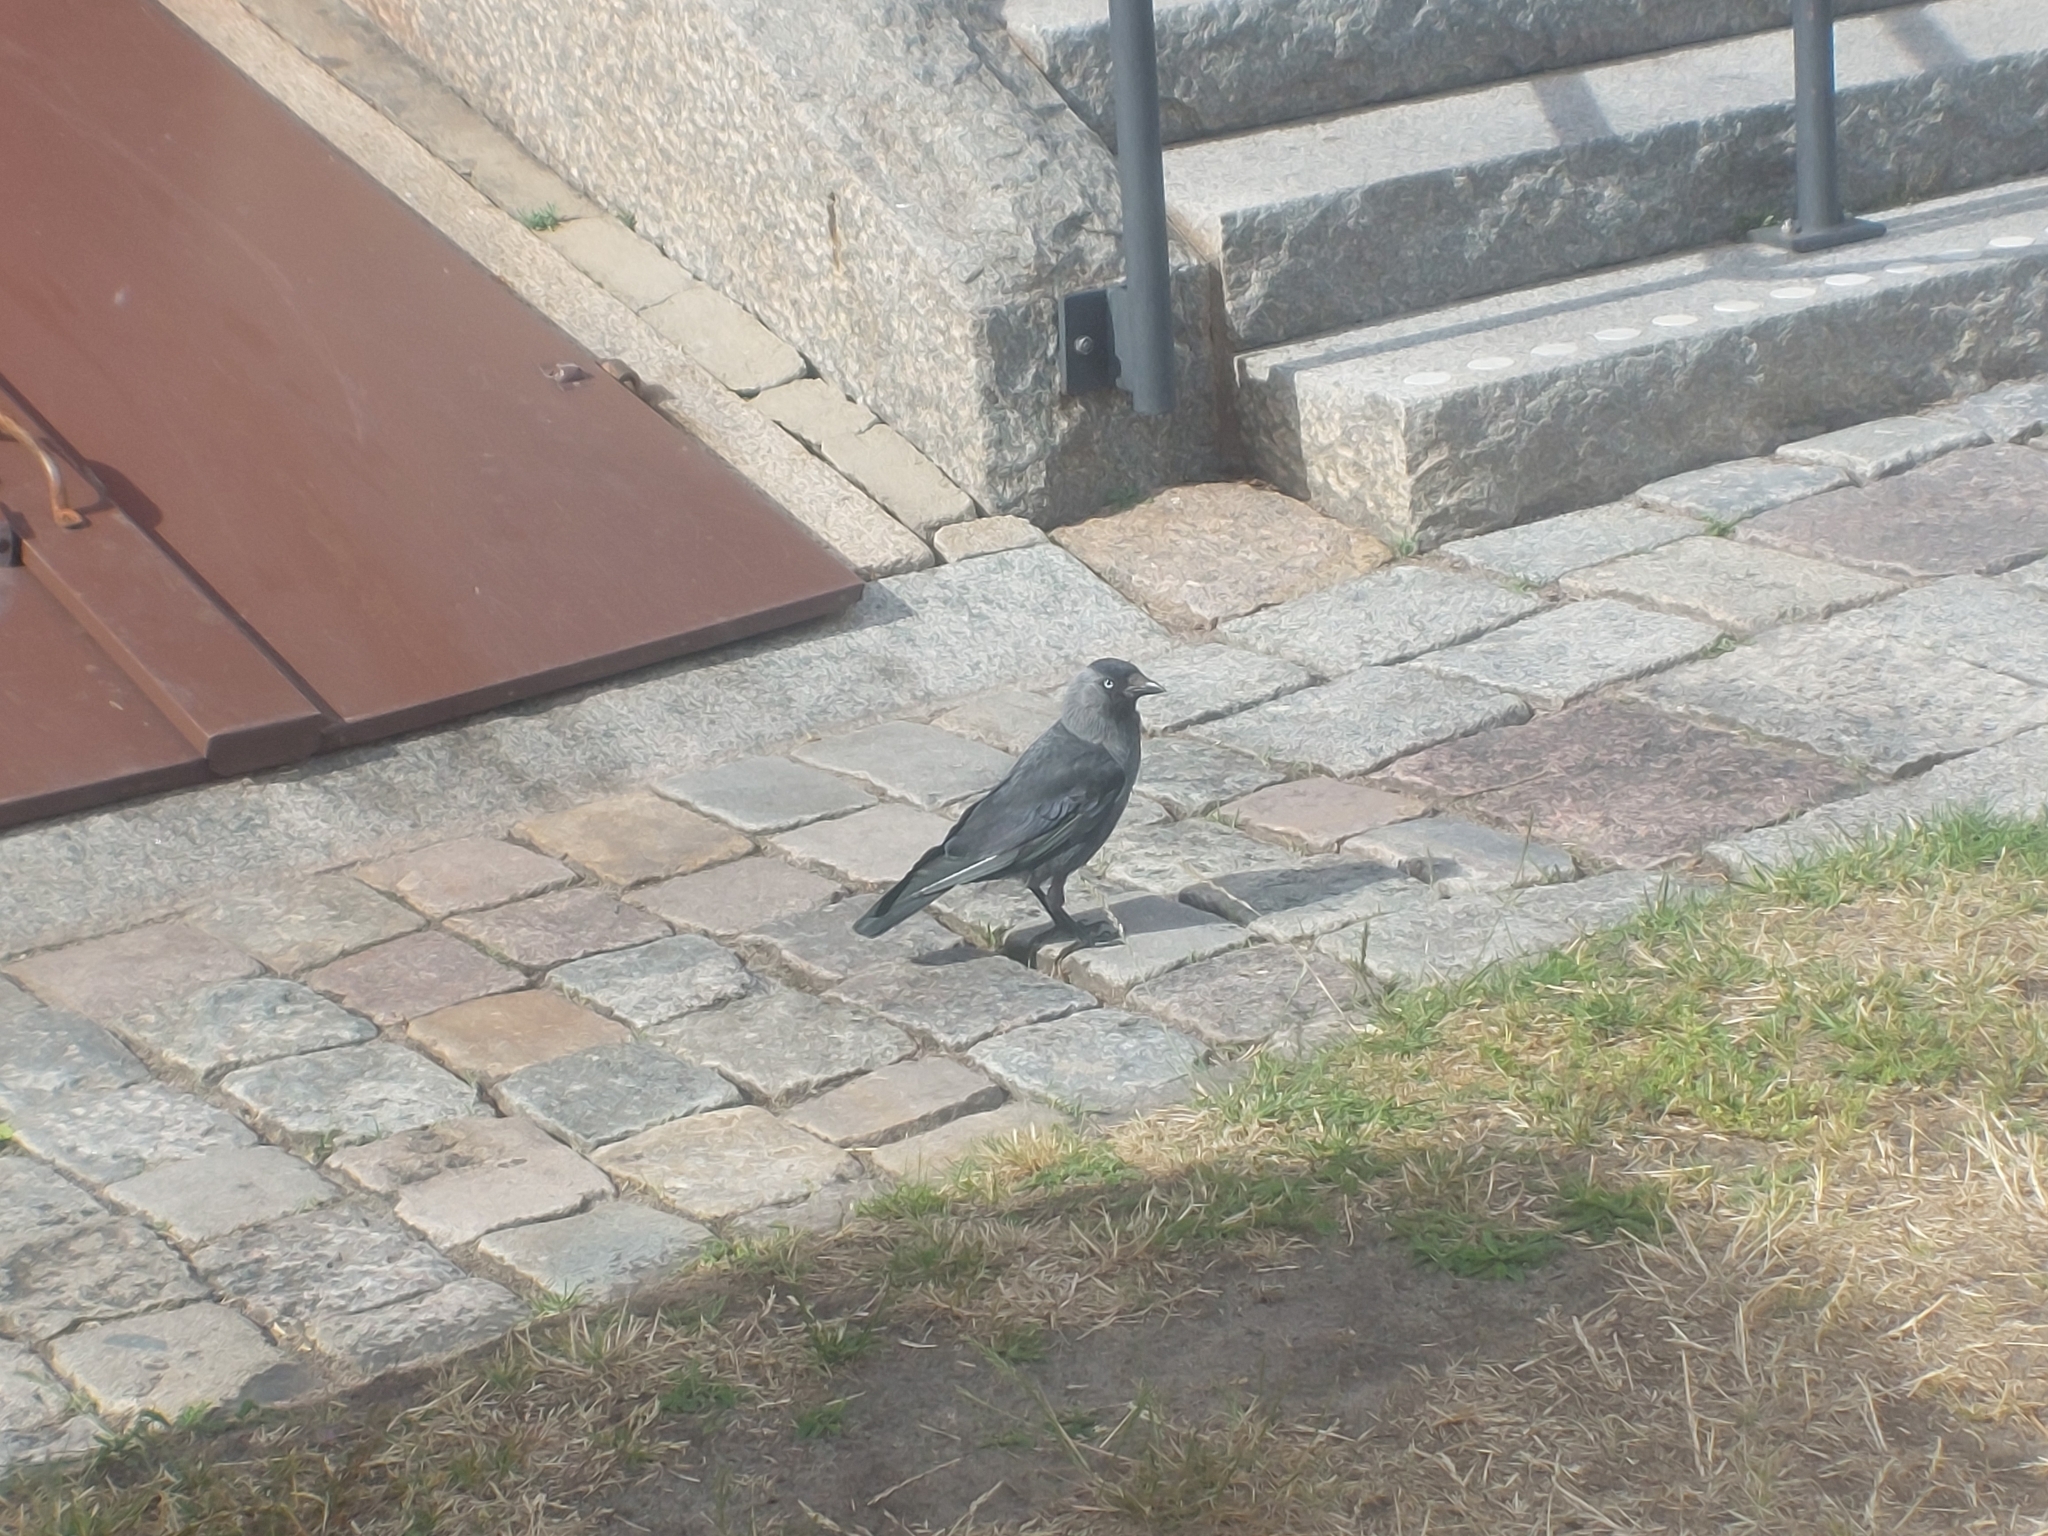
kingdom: Animalia
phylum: Chordata
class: Aves
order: Passeriformes
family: Corvidae
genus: Coloeus
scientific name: Coloeus monedula
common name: Western jackdaw
